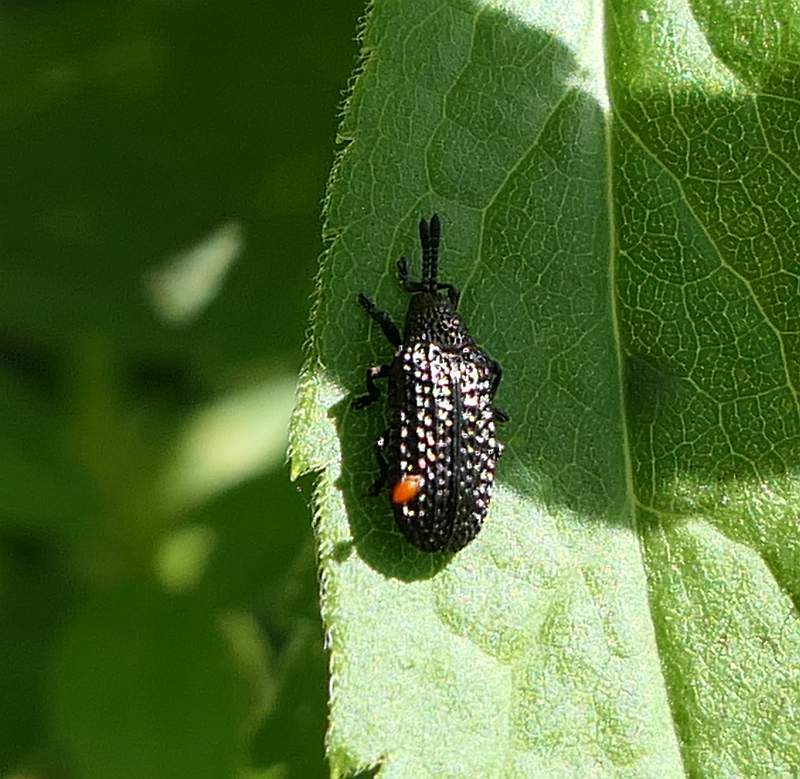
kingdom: Animalia
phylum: Arthropoda
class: Insecta
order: Coleoptera
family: Chrysomelidae
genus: Microrhopala
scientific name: Microrhopala excavata
